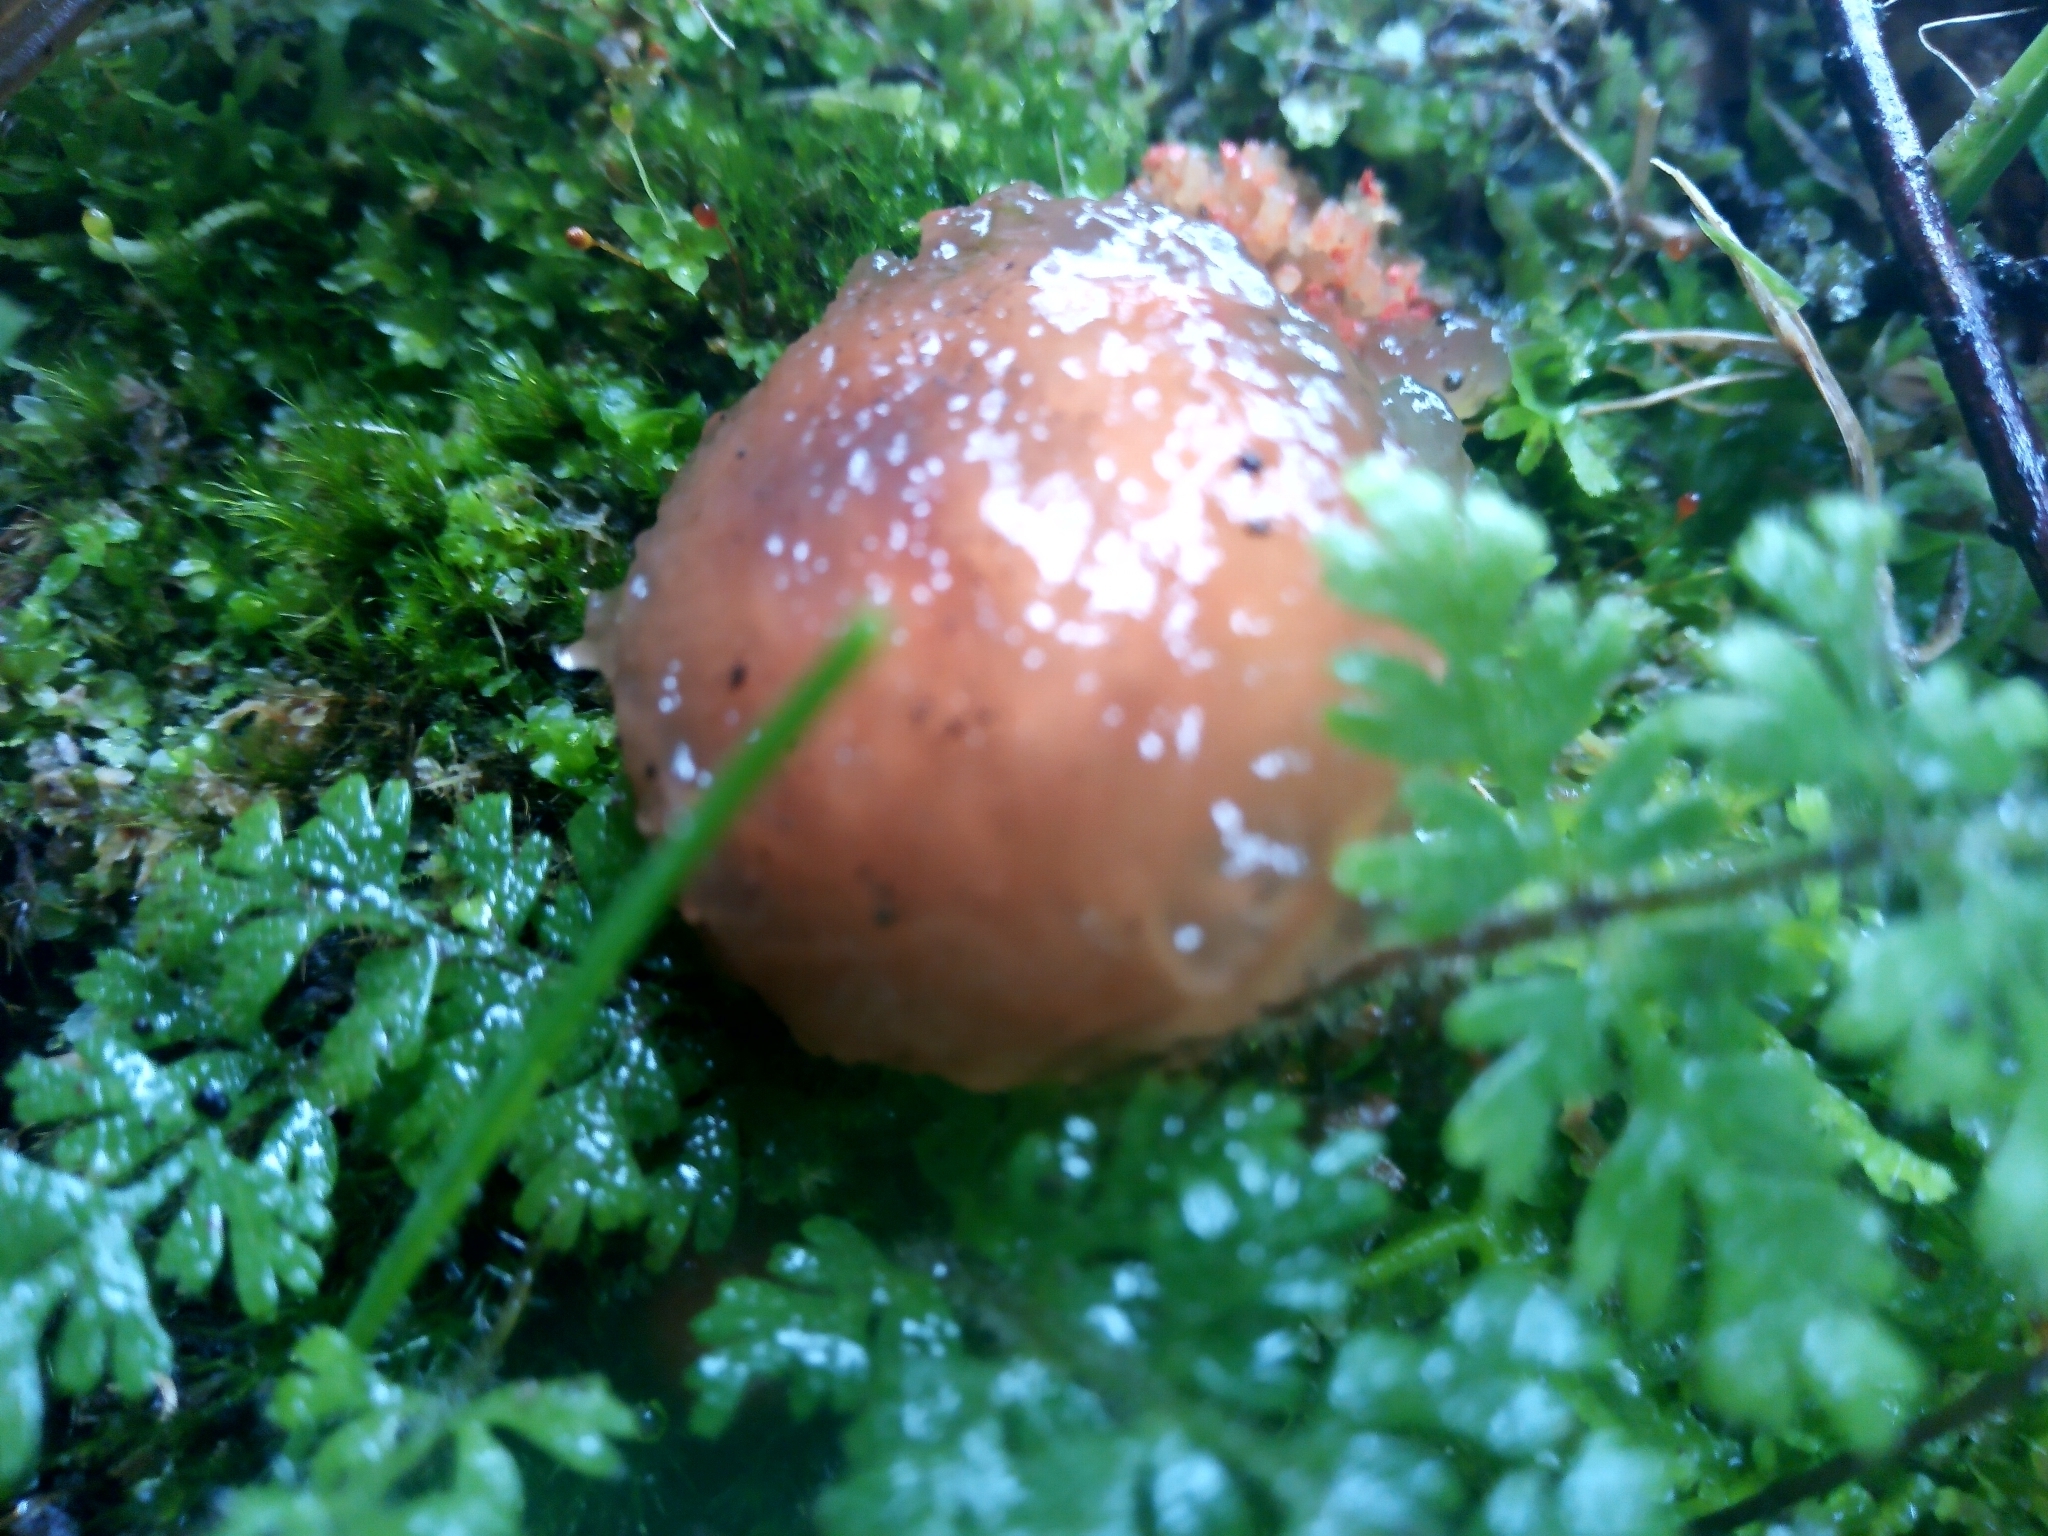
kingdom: Fungi
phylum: Basidiomycota
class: Agaricomycetes
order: Boletales
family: Calostomataceae
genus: Calostoma
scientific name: Calostoma cinnabarinum
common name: Stalked puffball-in-aspic
